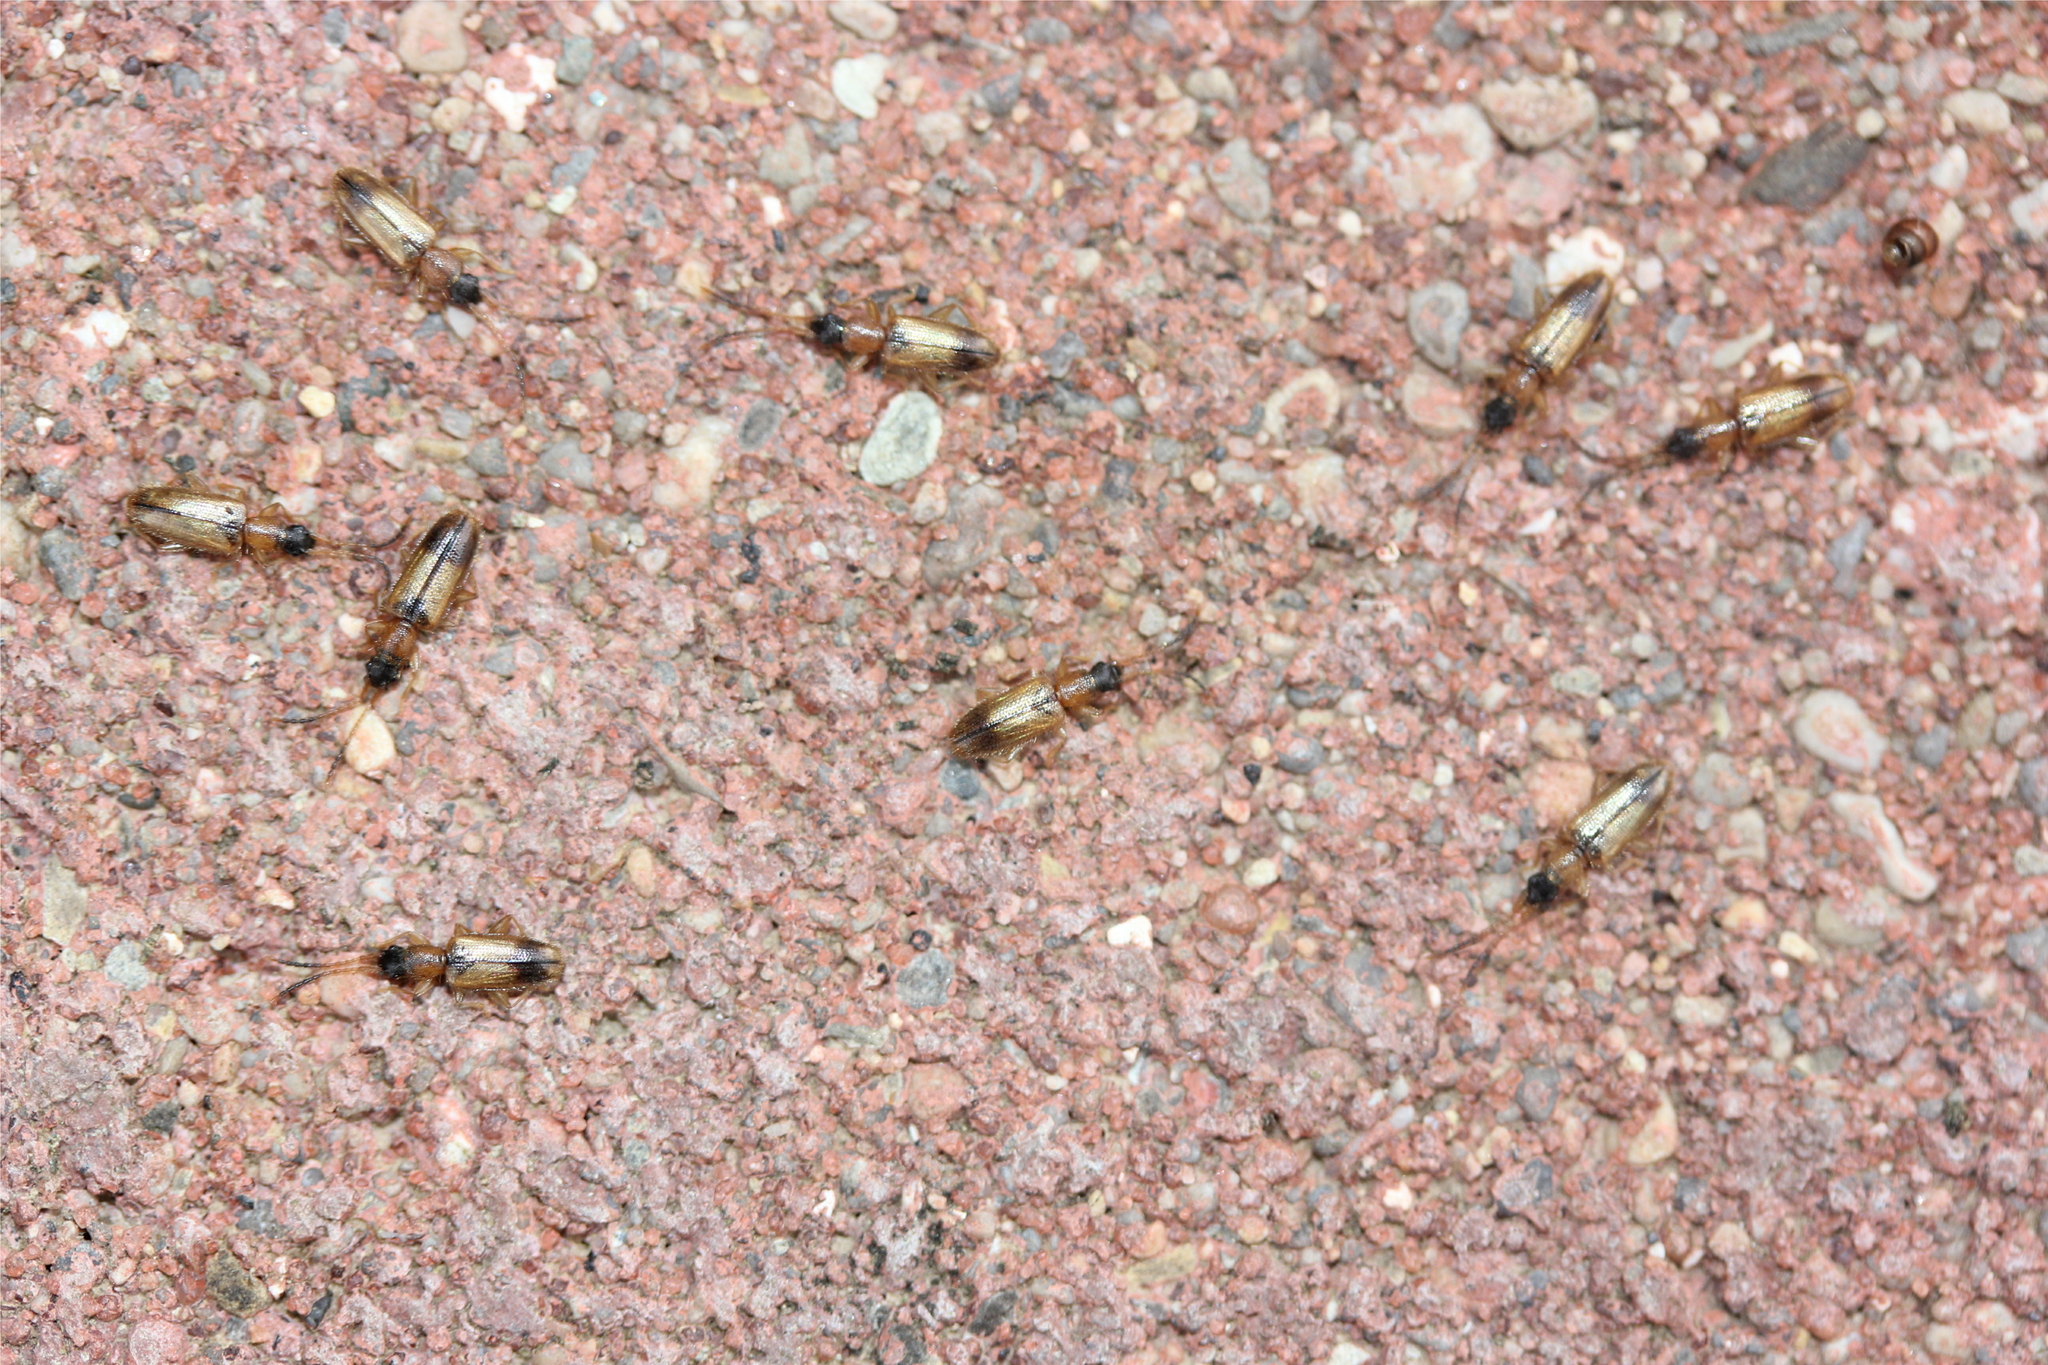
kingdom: Animalia
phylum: Arthropoda
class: Insecta
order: Coleoptera
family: Silvanidae
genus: Telephanus
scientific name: Telephanus velox
